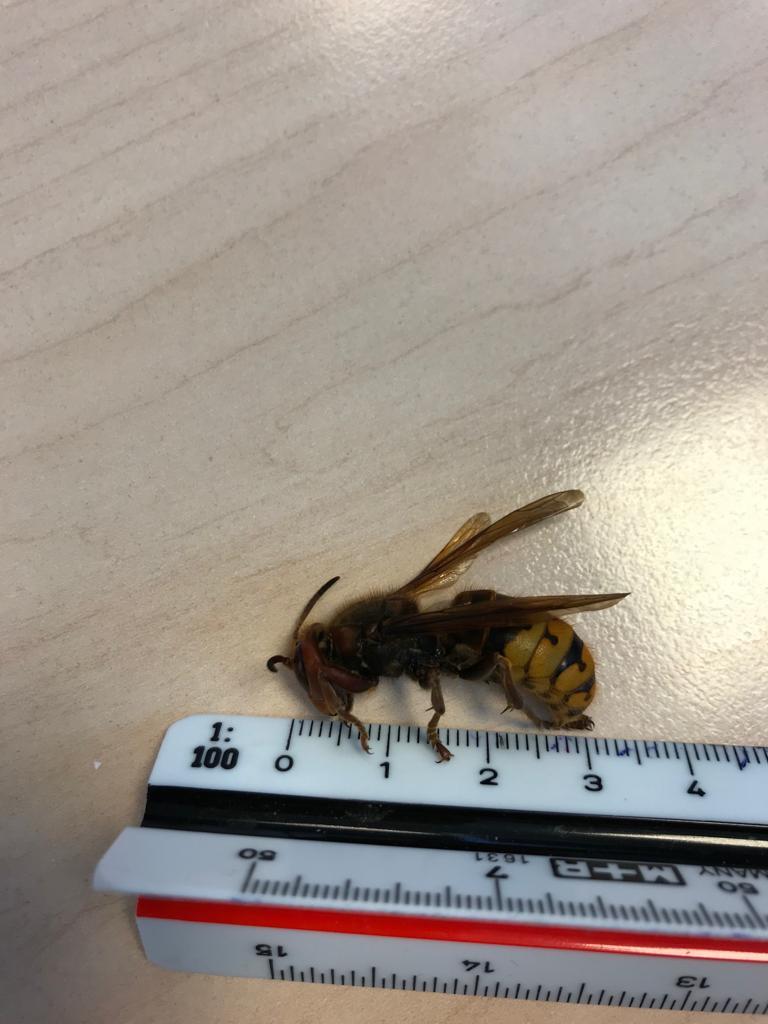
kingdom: Animalia
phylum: Arthropoda
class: Insecta
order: Hymenoptera
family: Vespidae
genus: Vespa
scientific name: Vespa crabro
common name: Hornet
